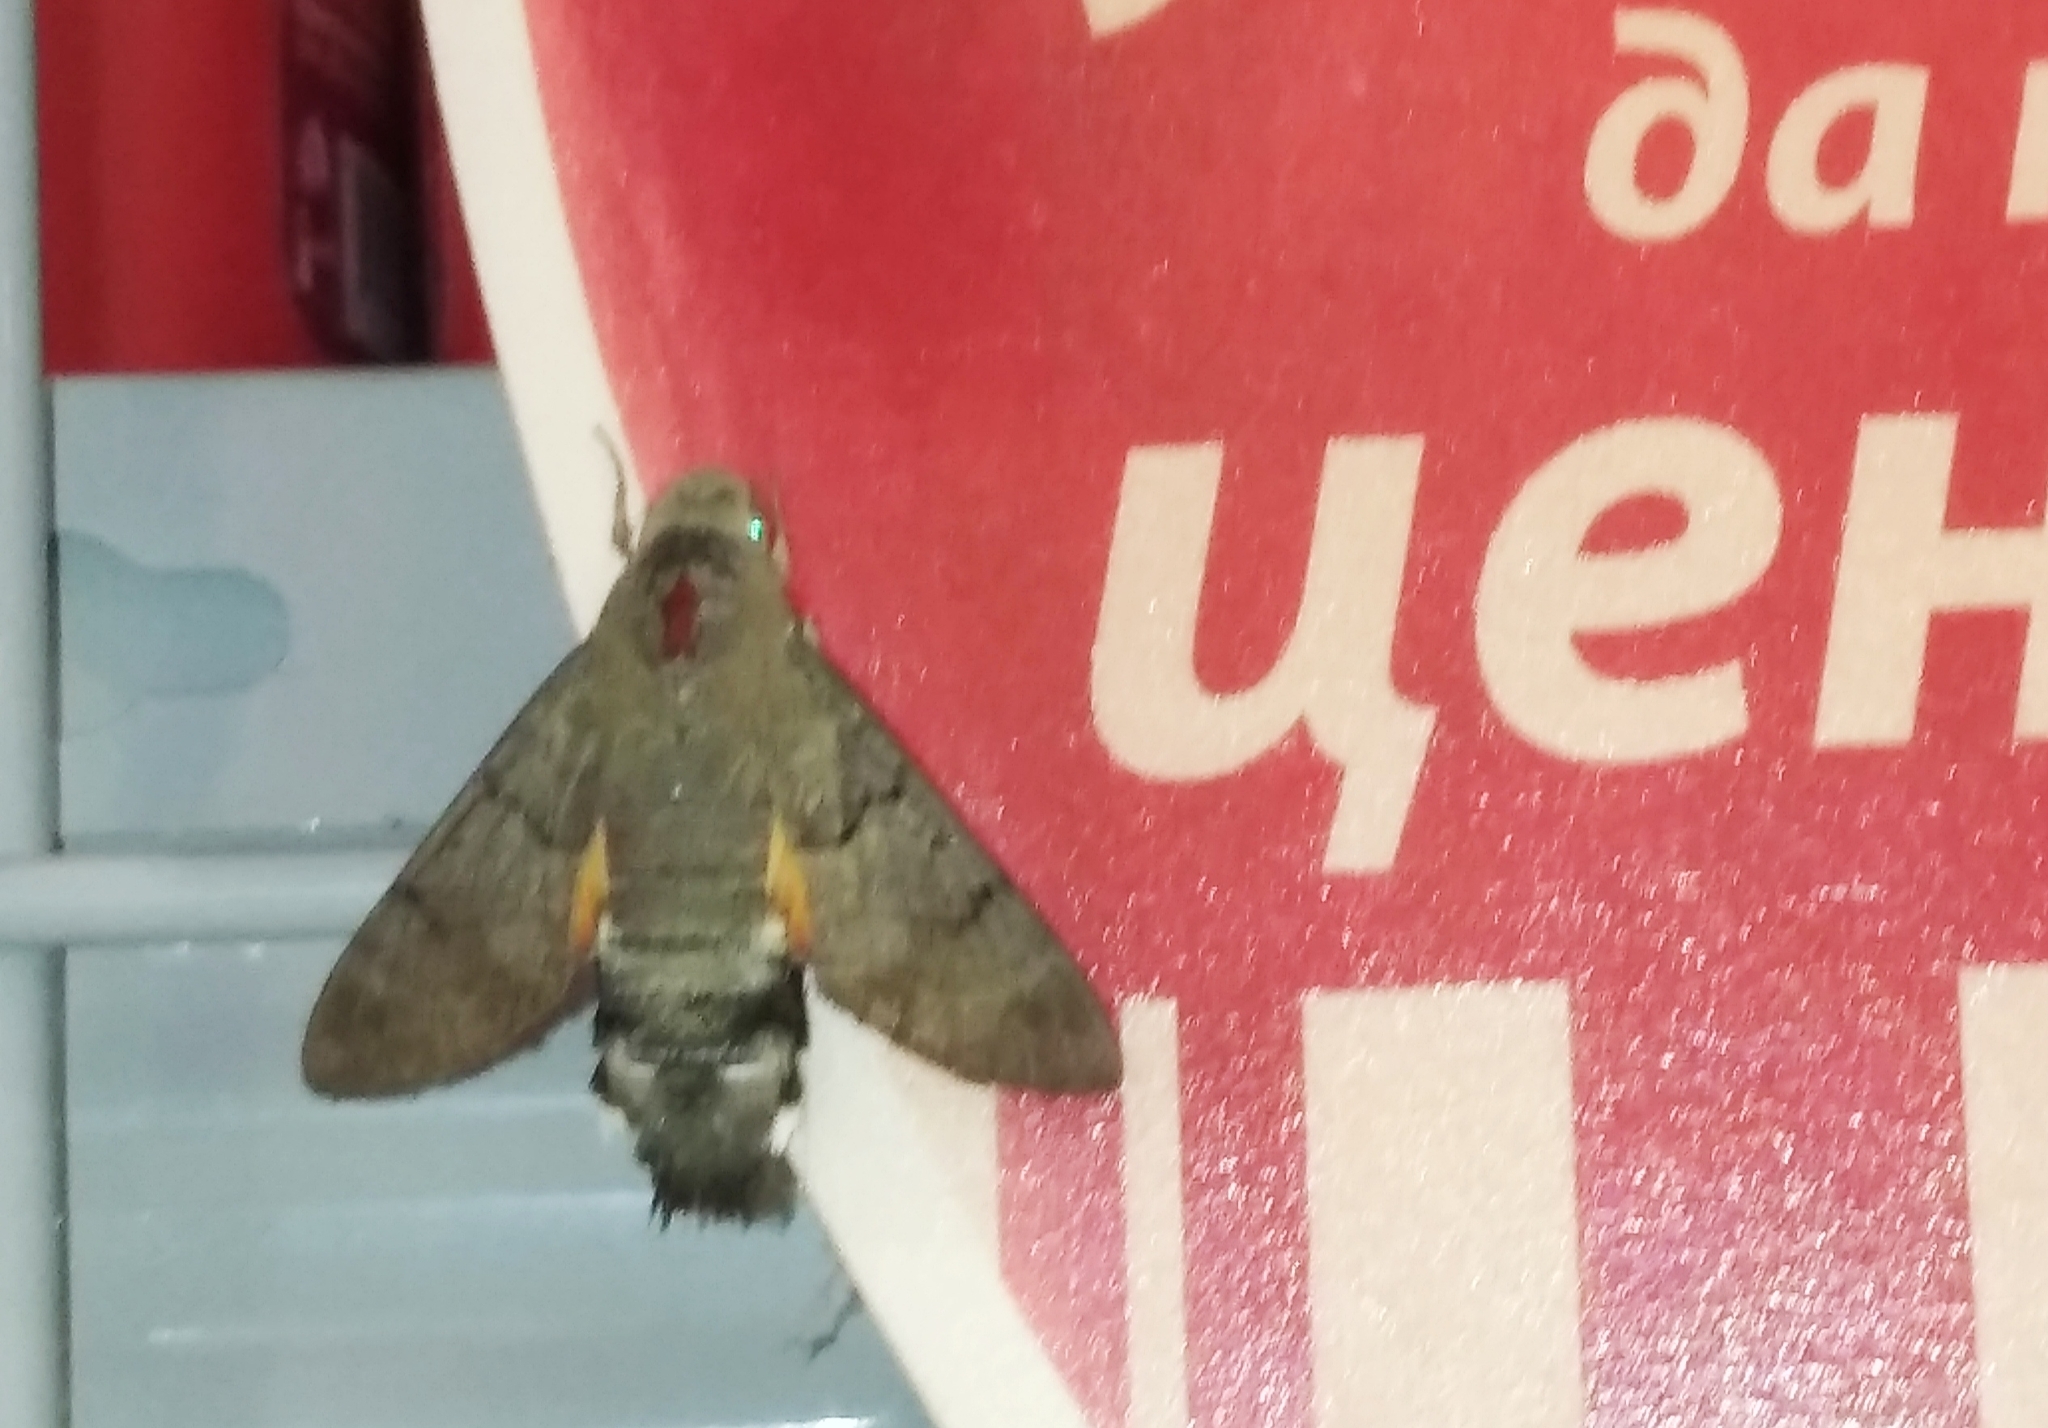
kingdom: Animalia
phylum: Arthropoda
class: Insecta
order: Lepidoptera
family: Sphingidae
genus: Macroglossum
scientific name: Macroglossum stellatarum
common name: Humming-bird hawk-moth
